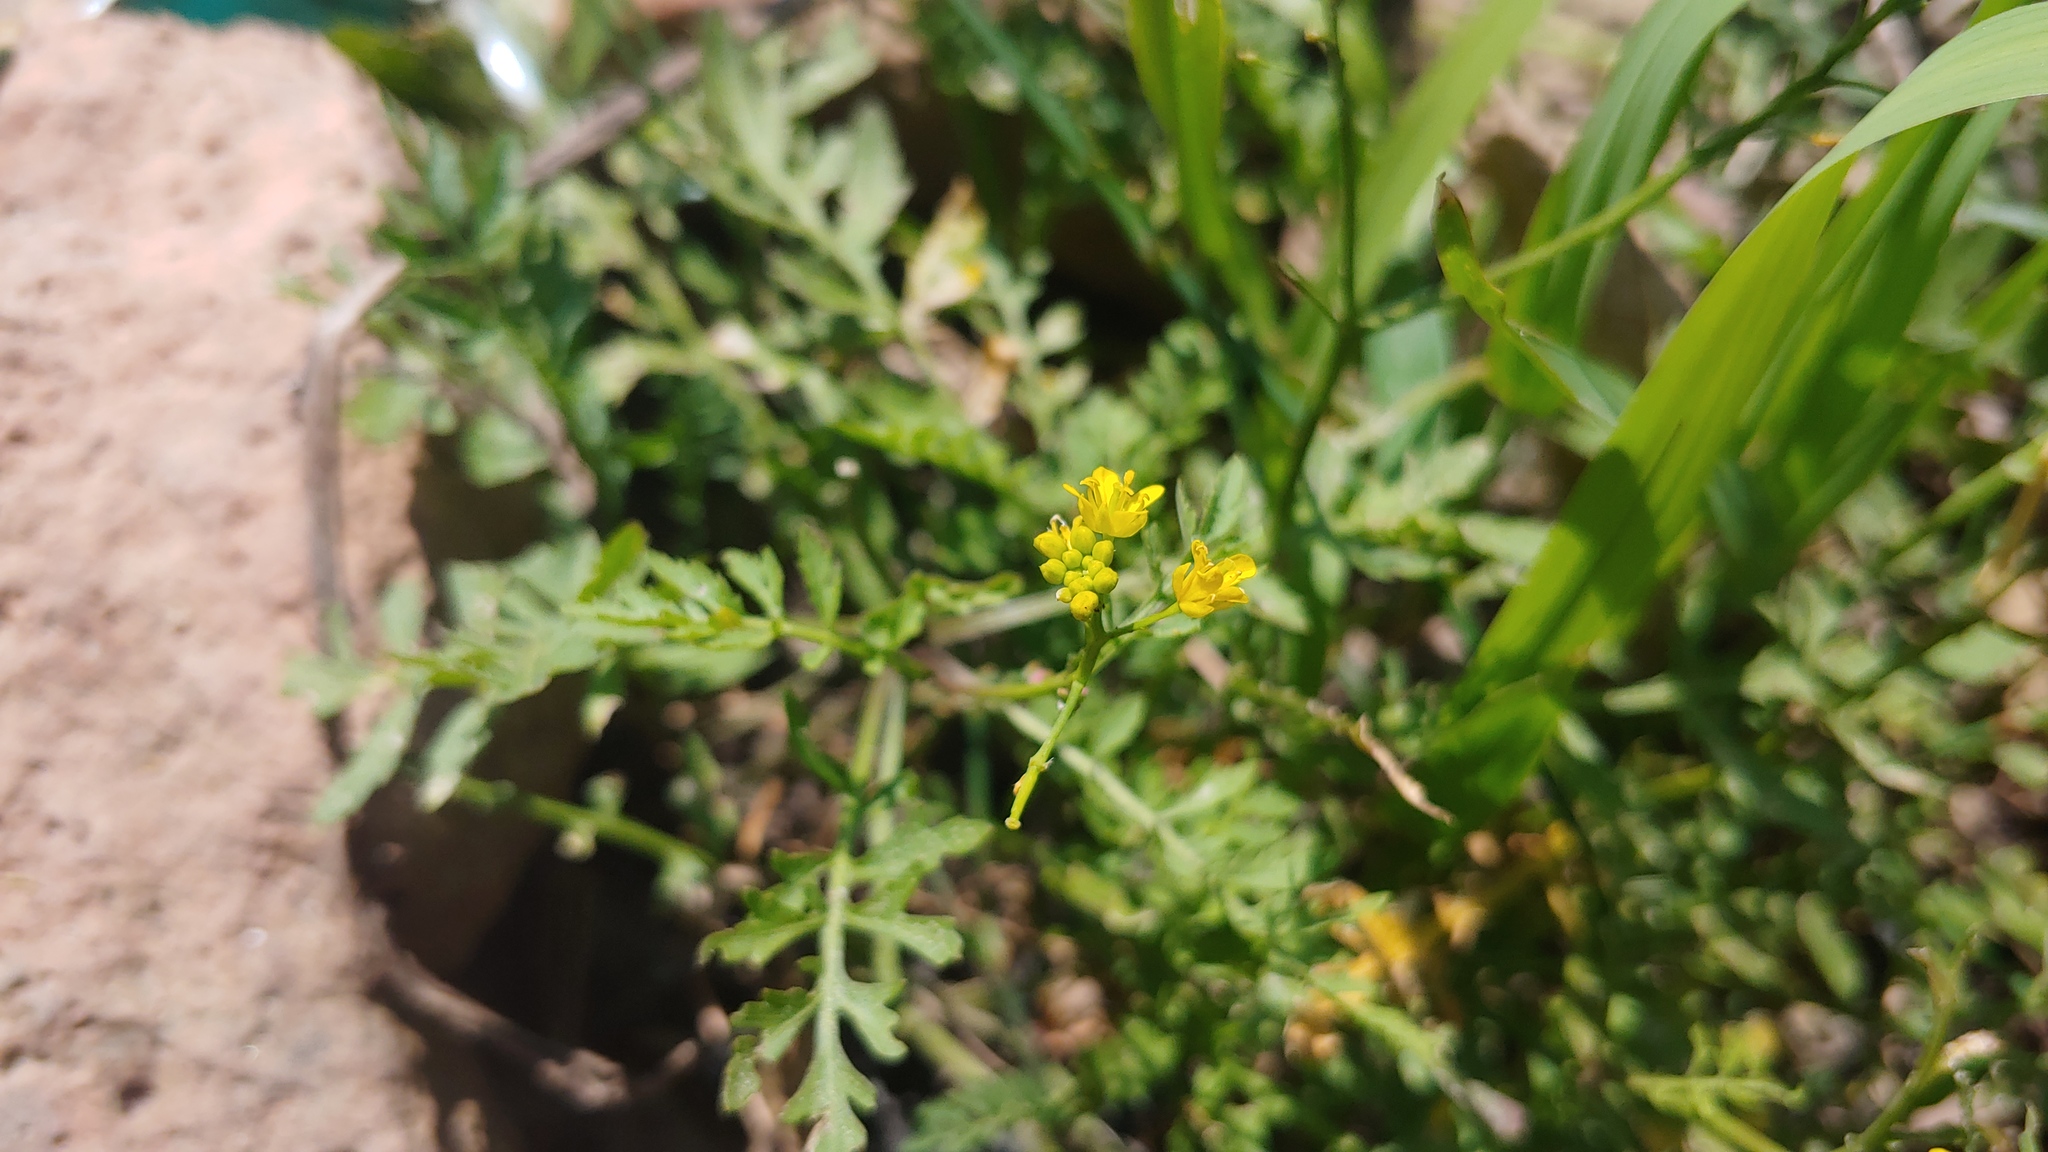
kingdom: Plantae
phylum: Tracheophyta
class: Magnoliopsida
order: Brassicales
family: Brassicaceae
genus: Rorippa
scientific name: Rorippa sylvestris
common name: Creeping yellowcress
